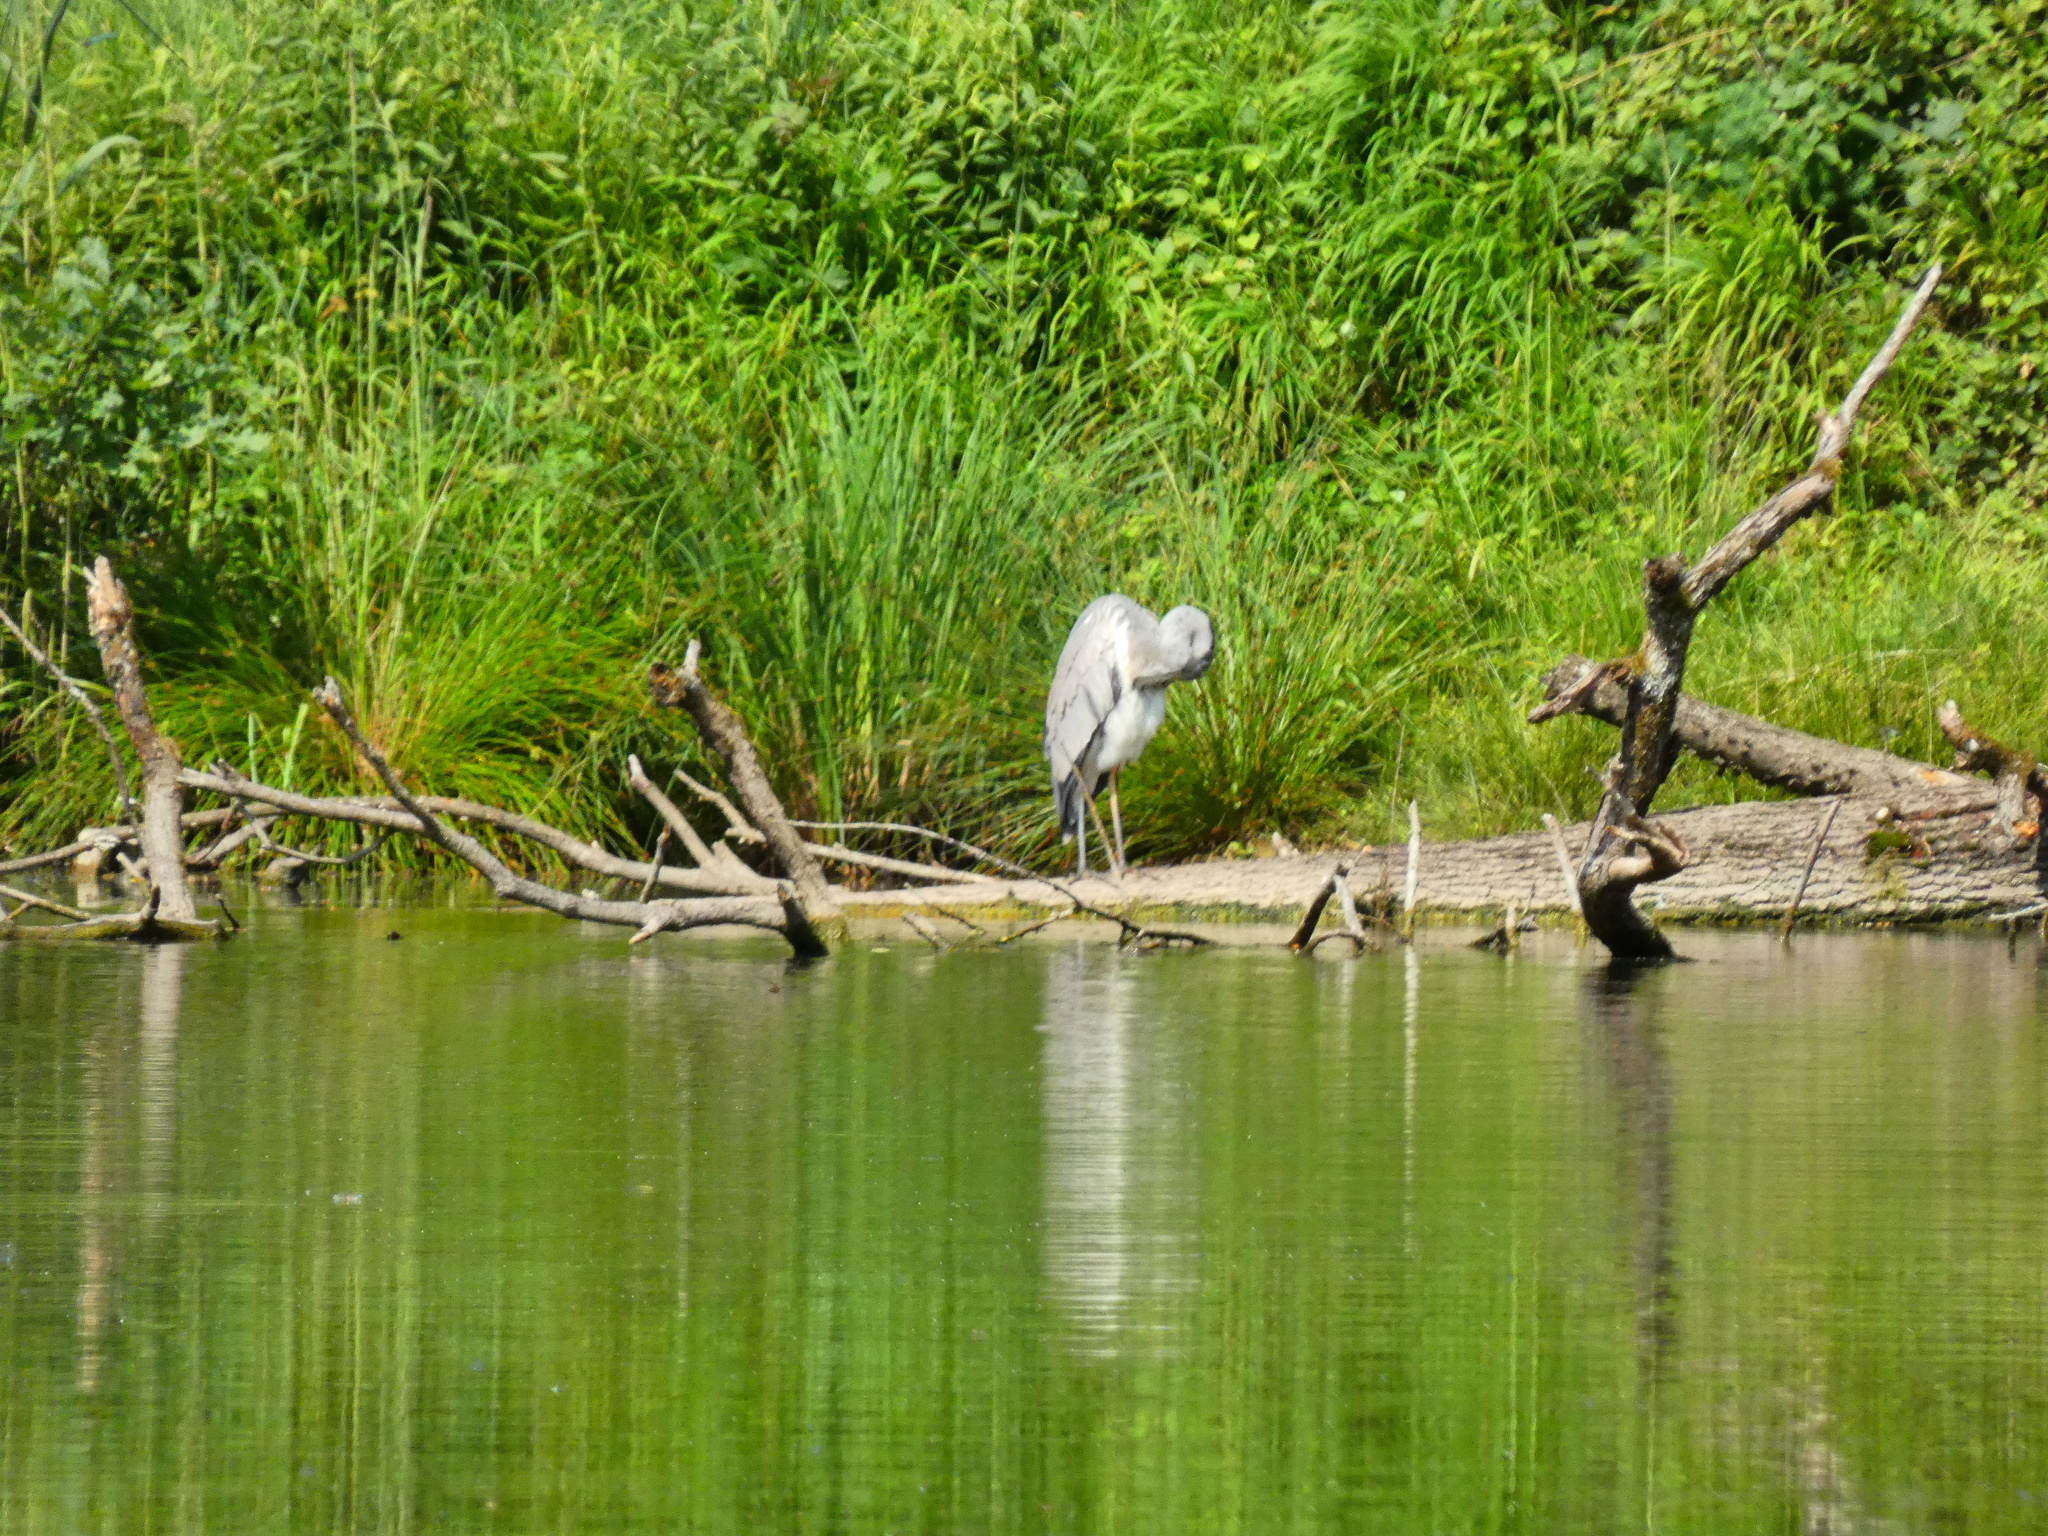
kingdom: Animalia
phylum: Chordata
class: Aves
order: Pelecaniformes
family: Ardeidae
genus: Ardea
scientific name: Ardea cinerea
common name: Grey heron
